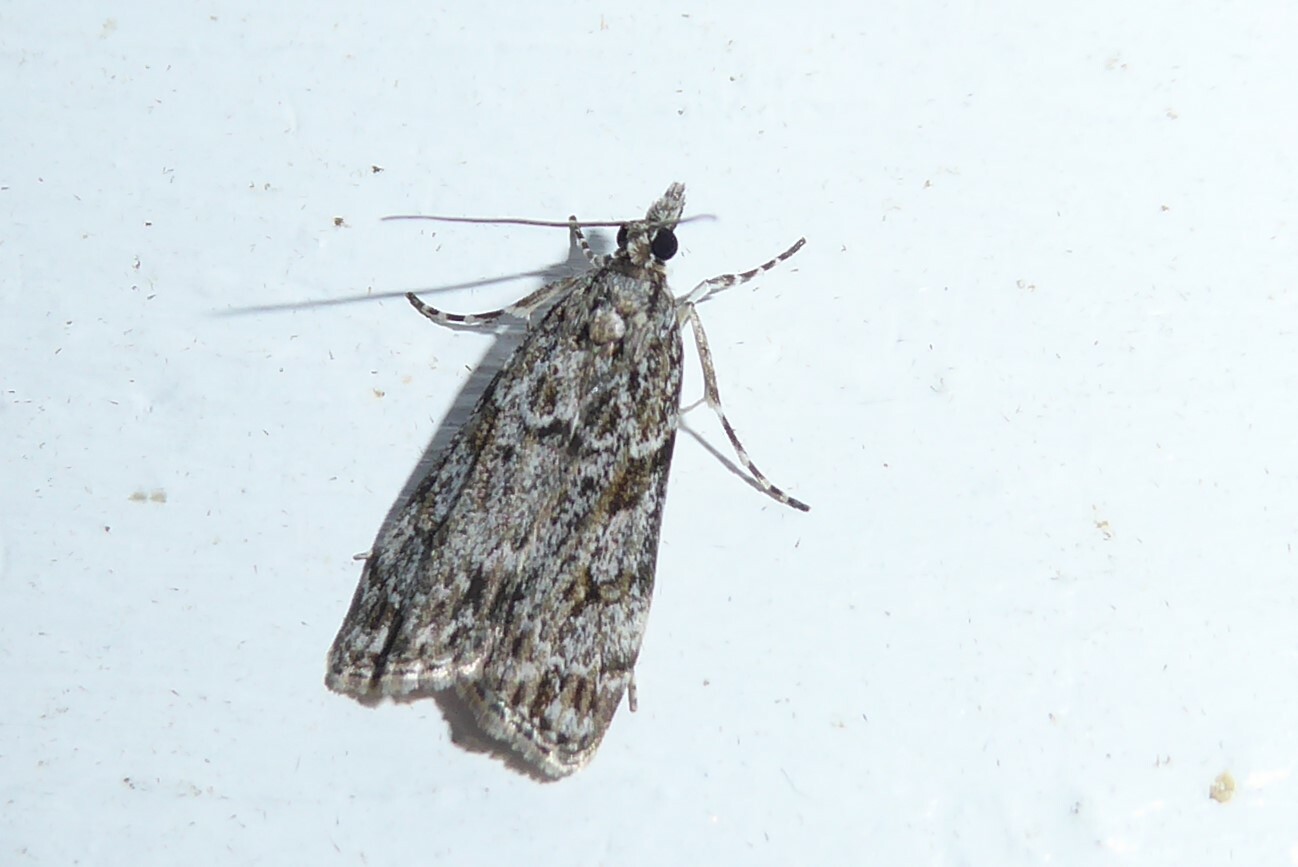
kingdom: Animalia
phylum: Arthropoda
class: Insecta
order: Lepidoptera
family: Crambidae
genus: Eudonia
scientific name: Eudonia cymatias
